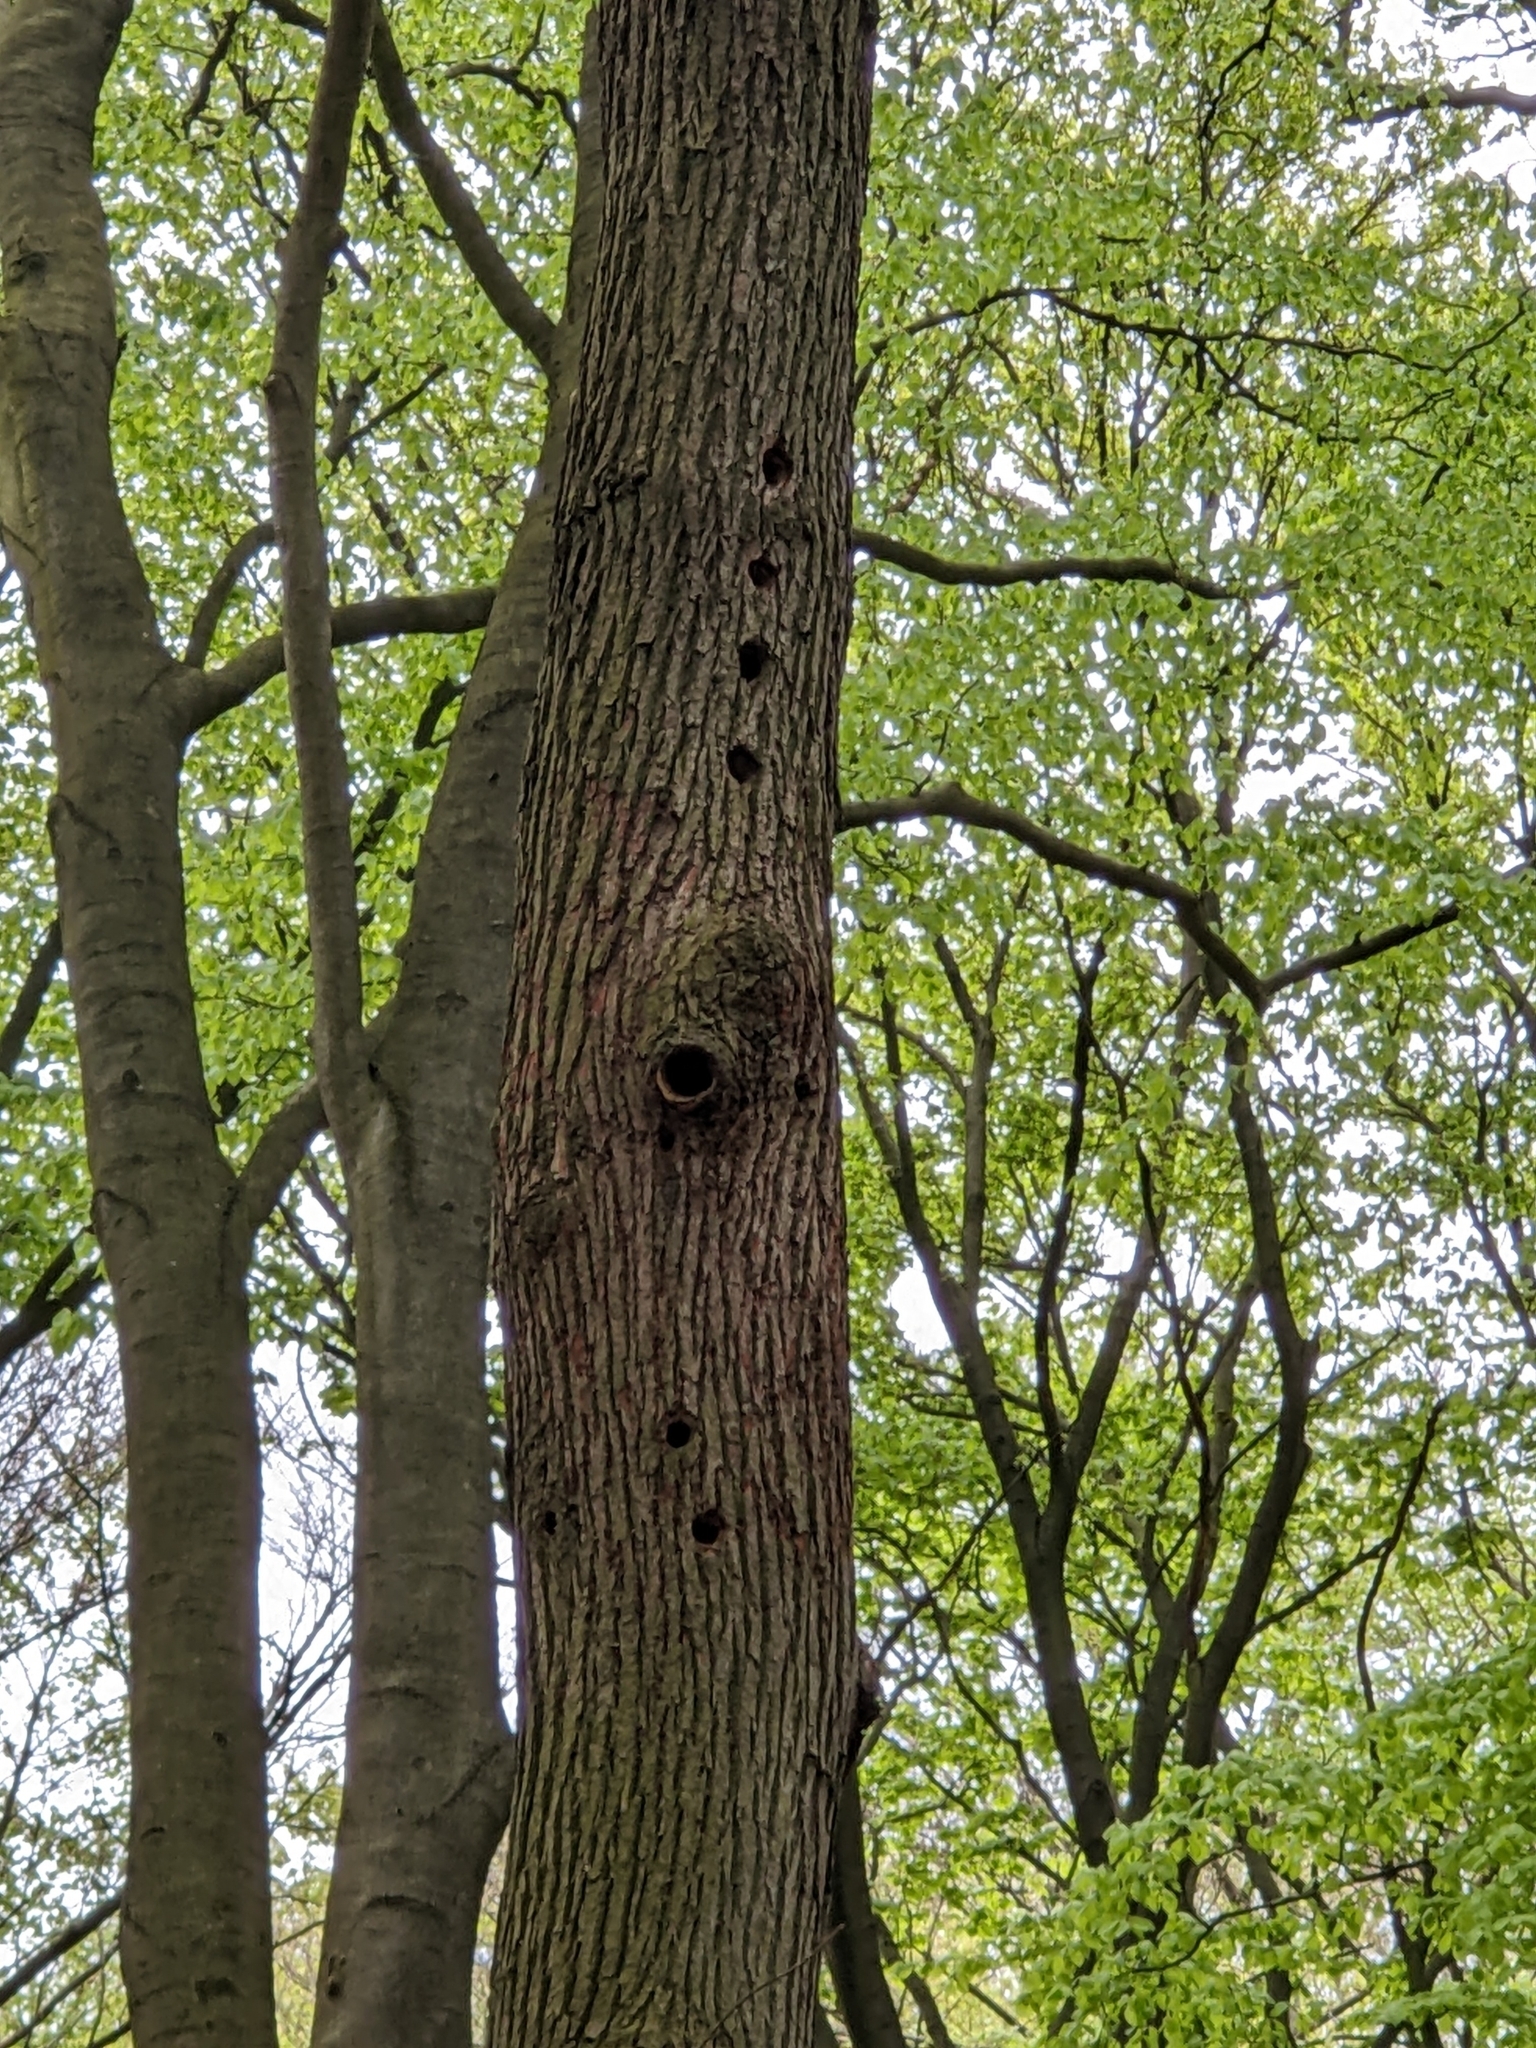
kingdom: Animalia
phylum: Chordata
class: Aves
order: Piciformes
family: Picidae
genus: Dendrocopos
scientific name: Dendrocopos major
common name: Great spotted woodpecker
